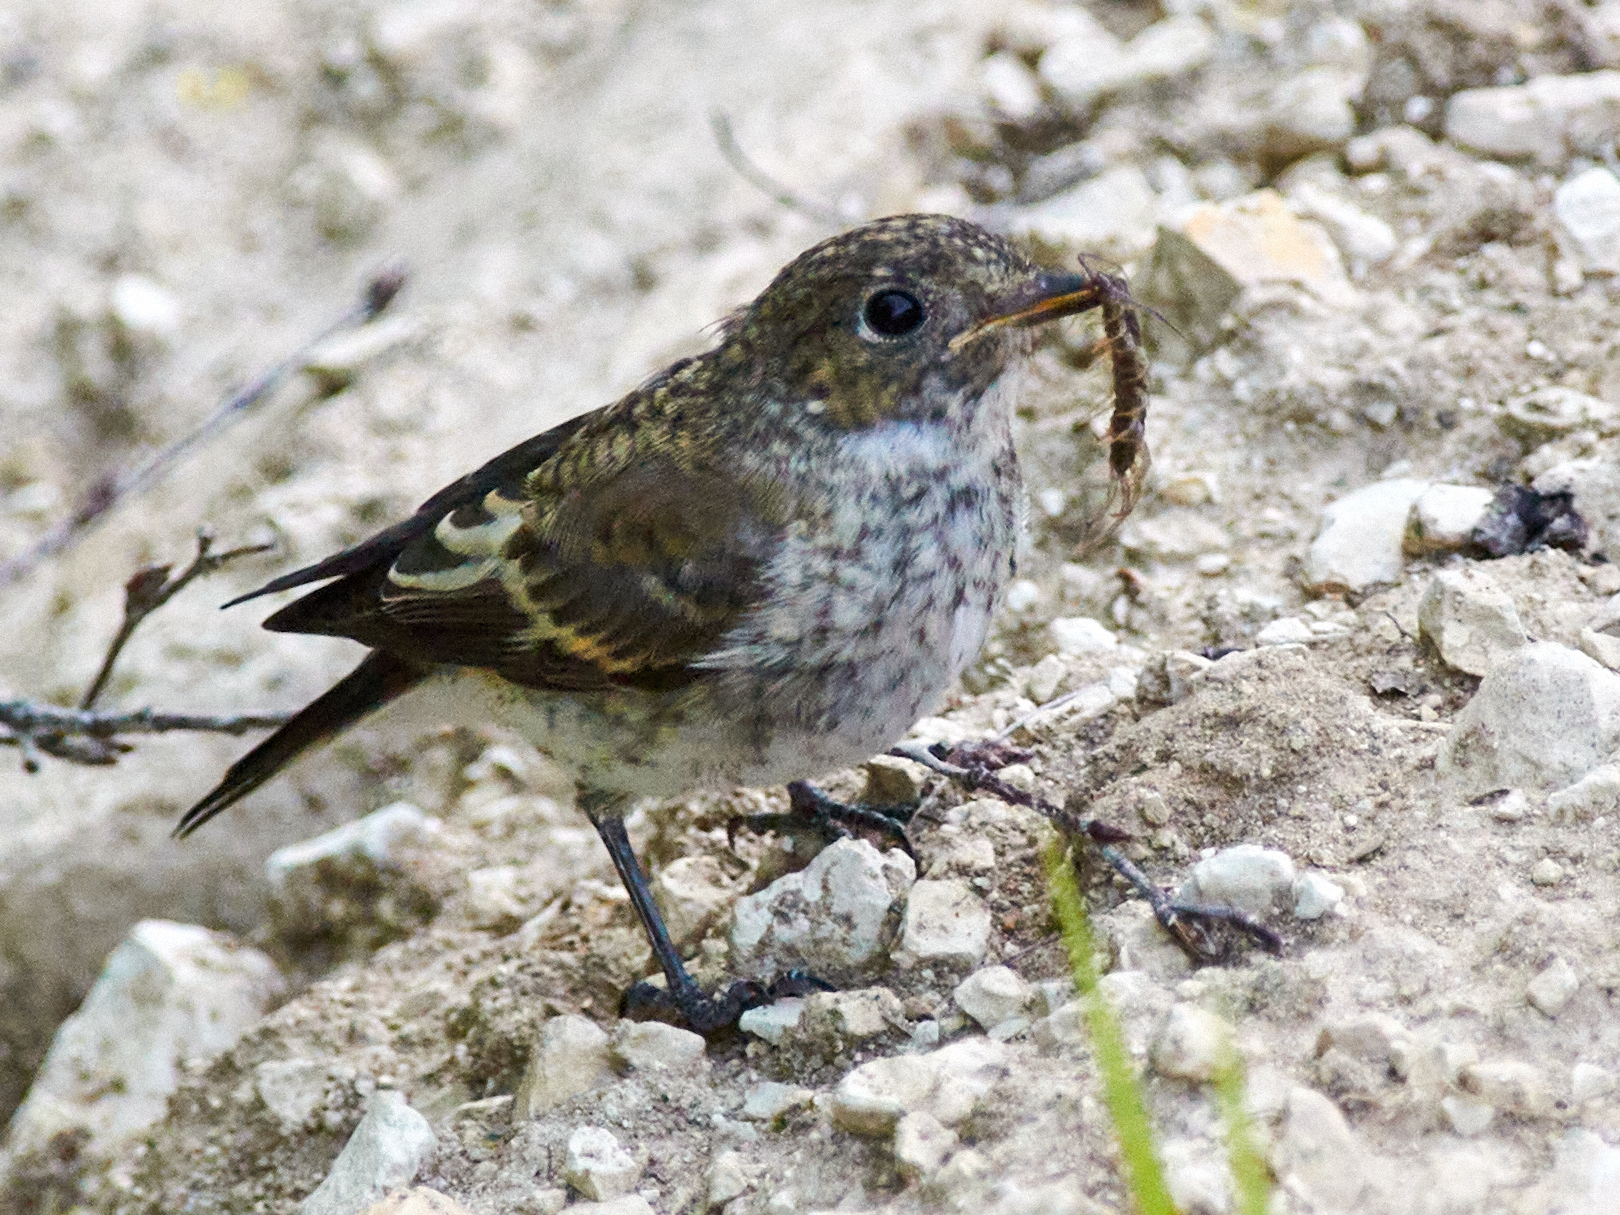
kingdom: Animalia
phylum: Chordata
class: Aves
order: Passeriformes
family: Muscicapidae
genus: Ficedula
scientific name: Ficedula hypoleuca
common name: European pied flycatcher
